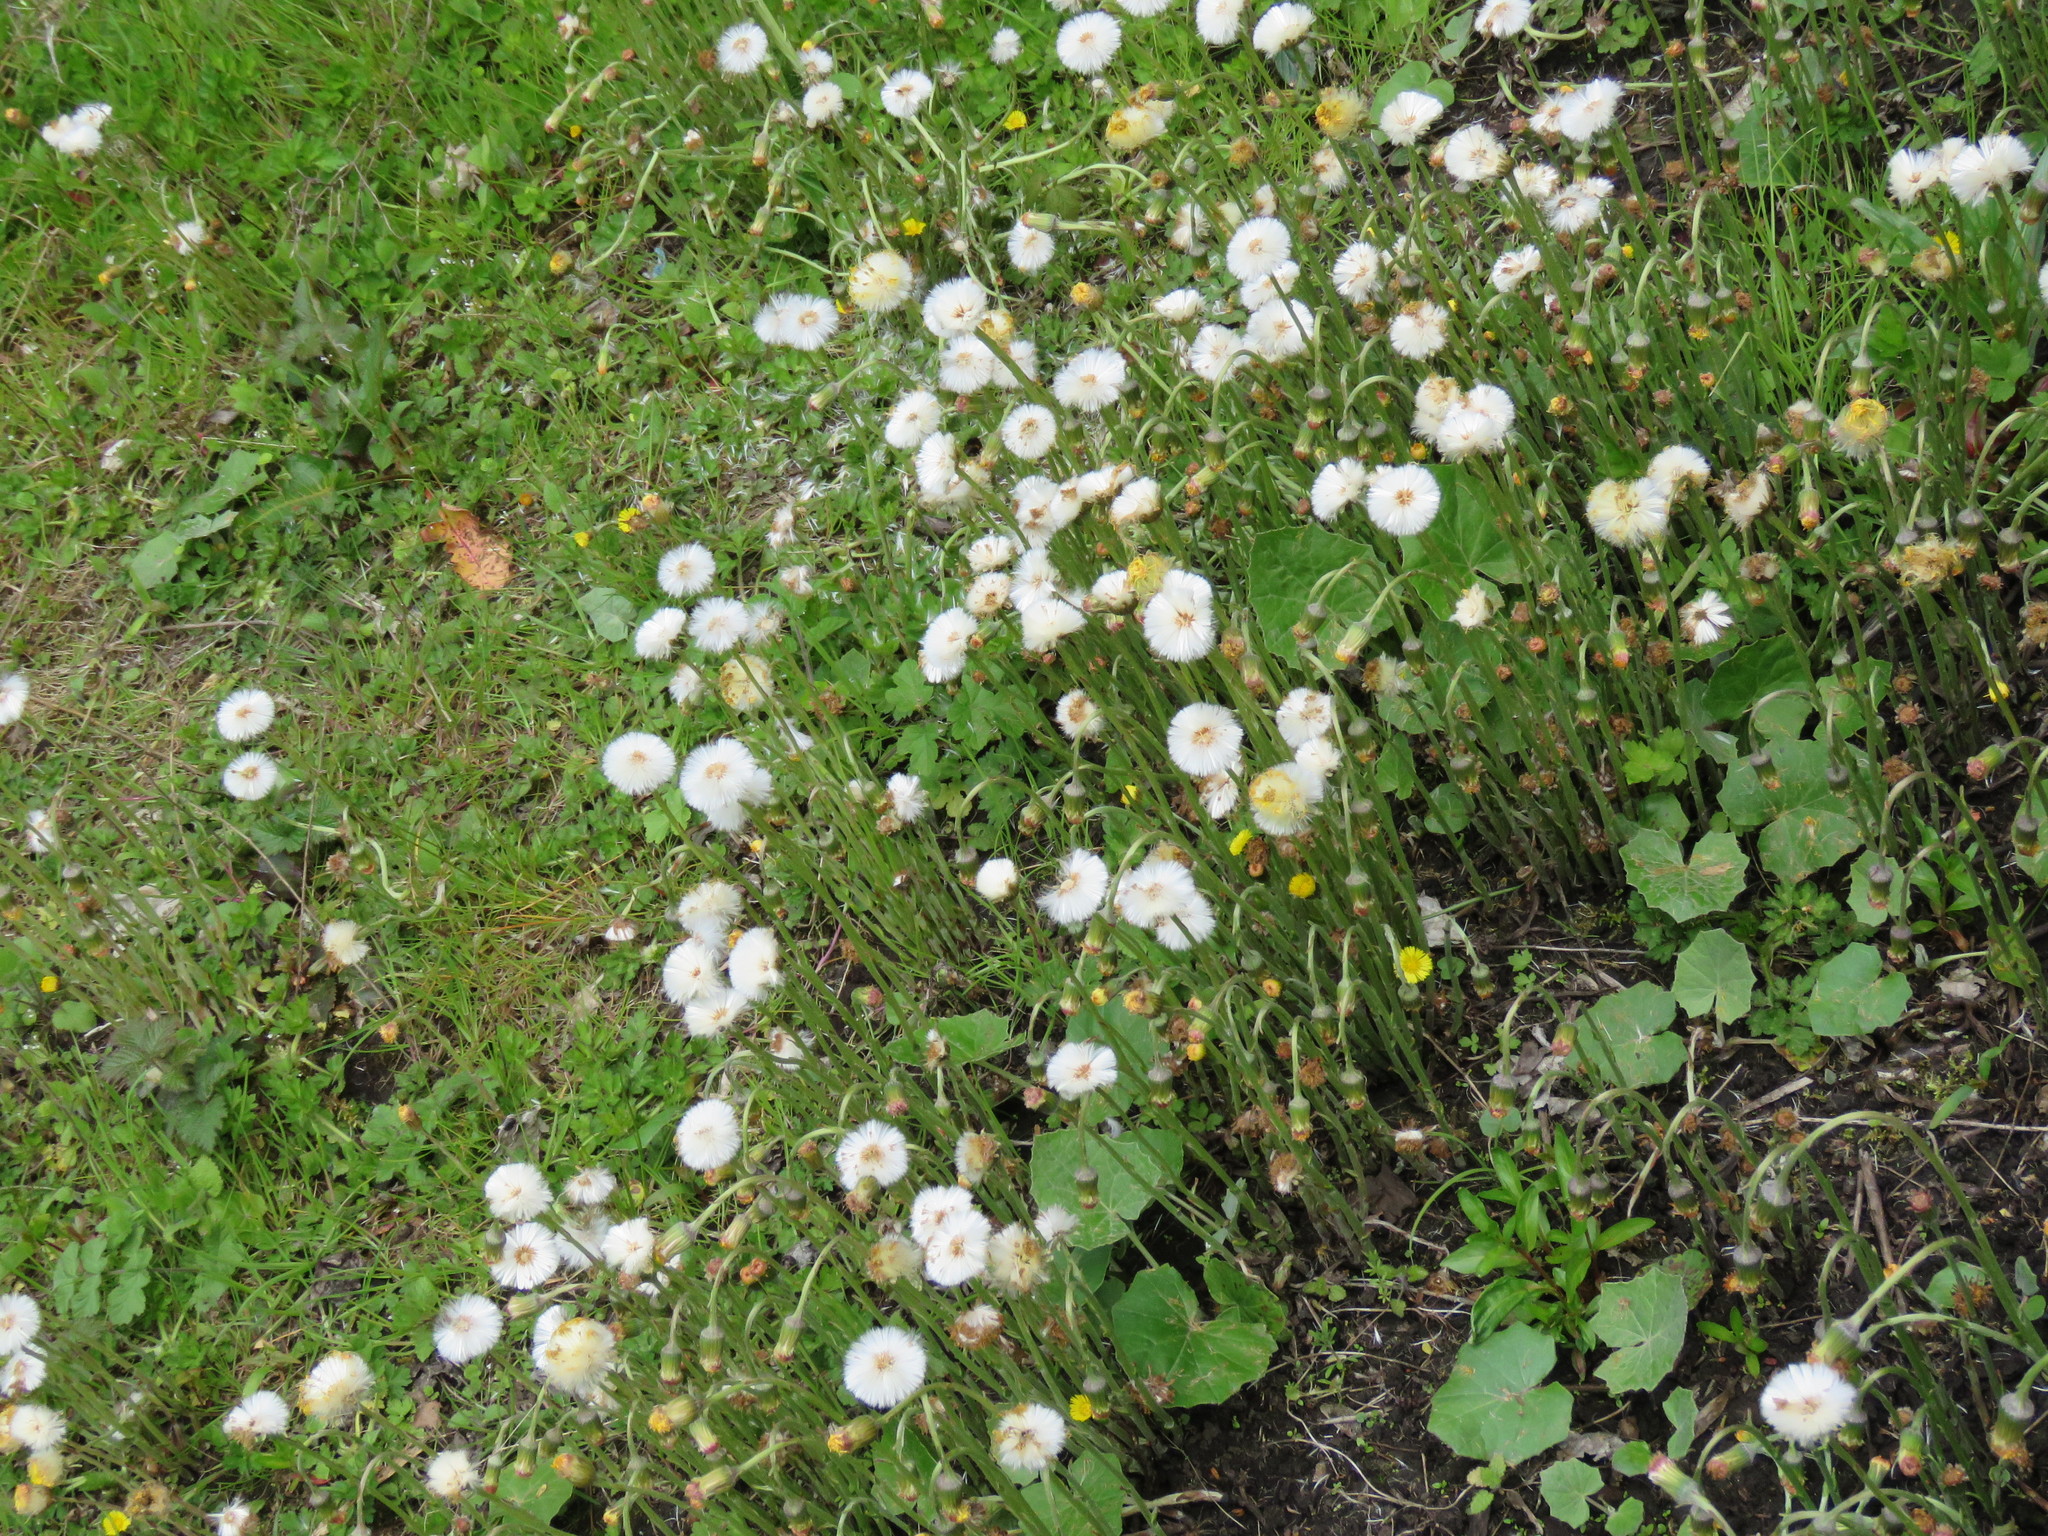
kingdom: Plantae
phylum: Tracheophyta
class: Magnoliopsida
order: Asterales
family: Asteraceae
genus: Tussilago
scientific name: Tussilago farfara
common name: Coltsfoot
